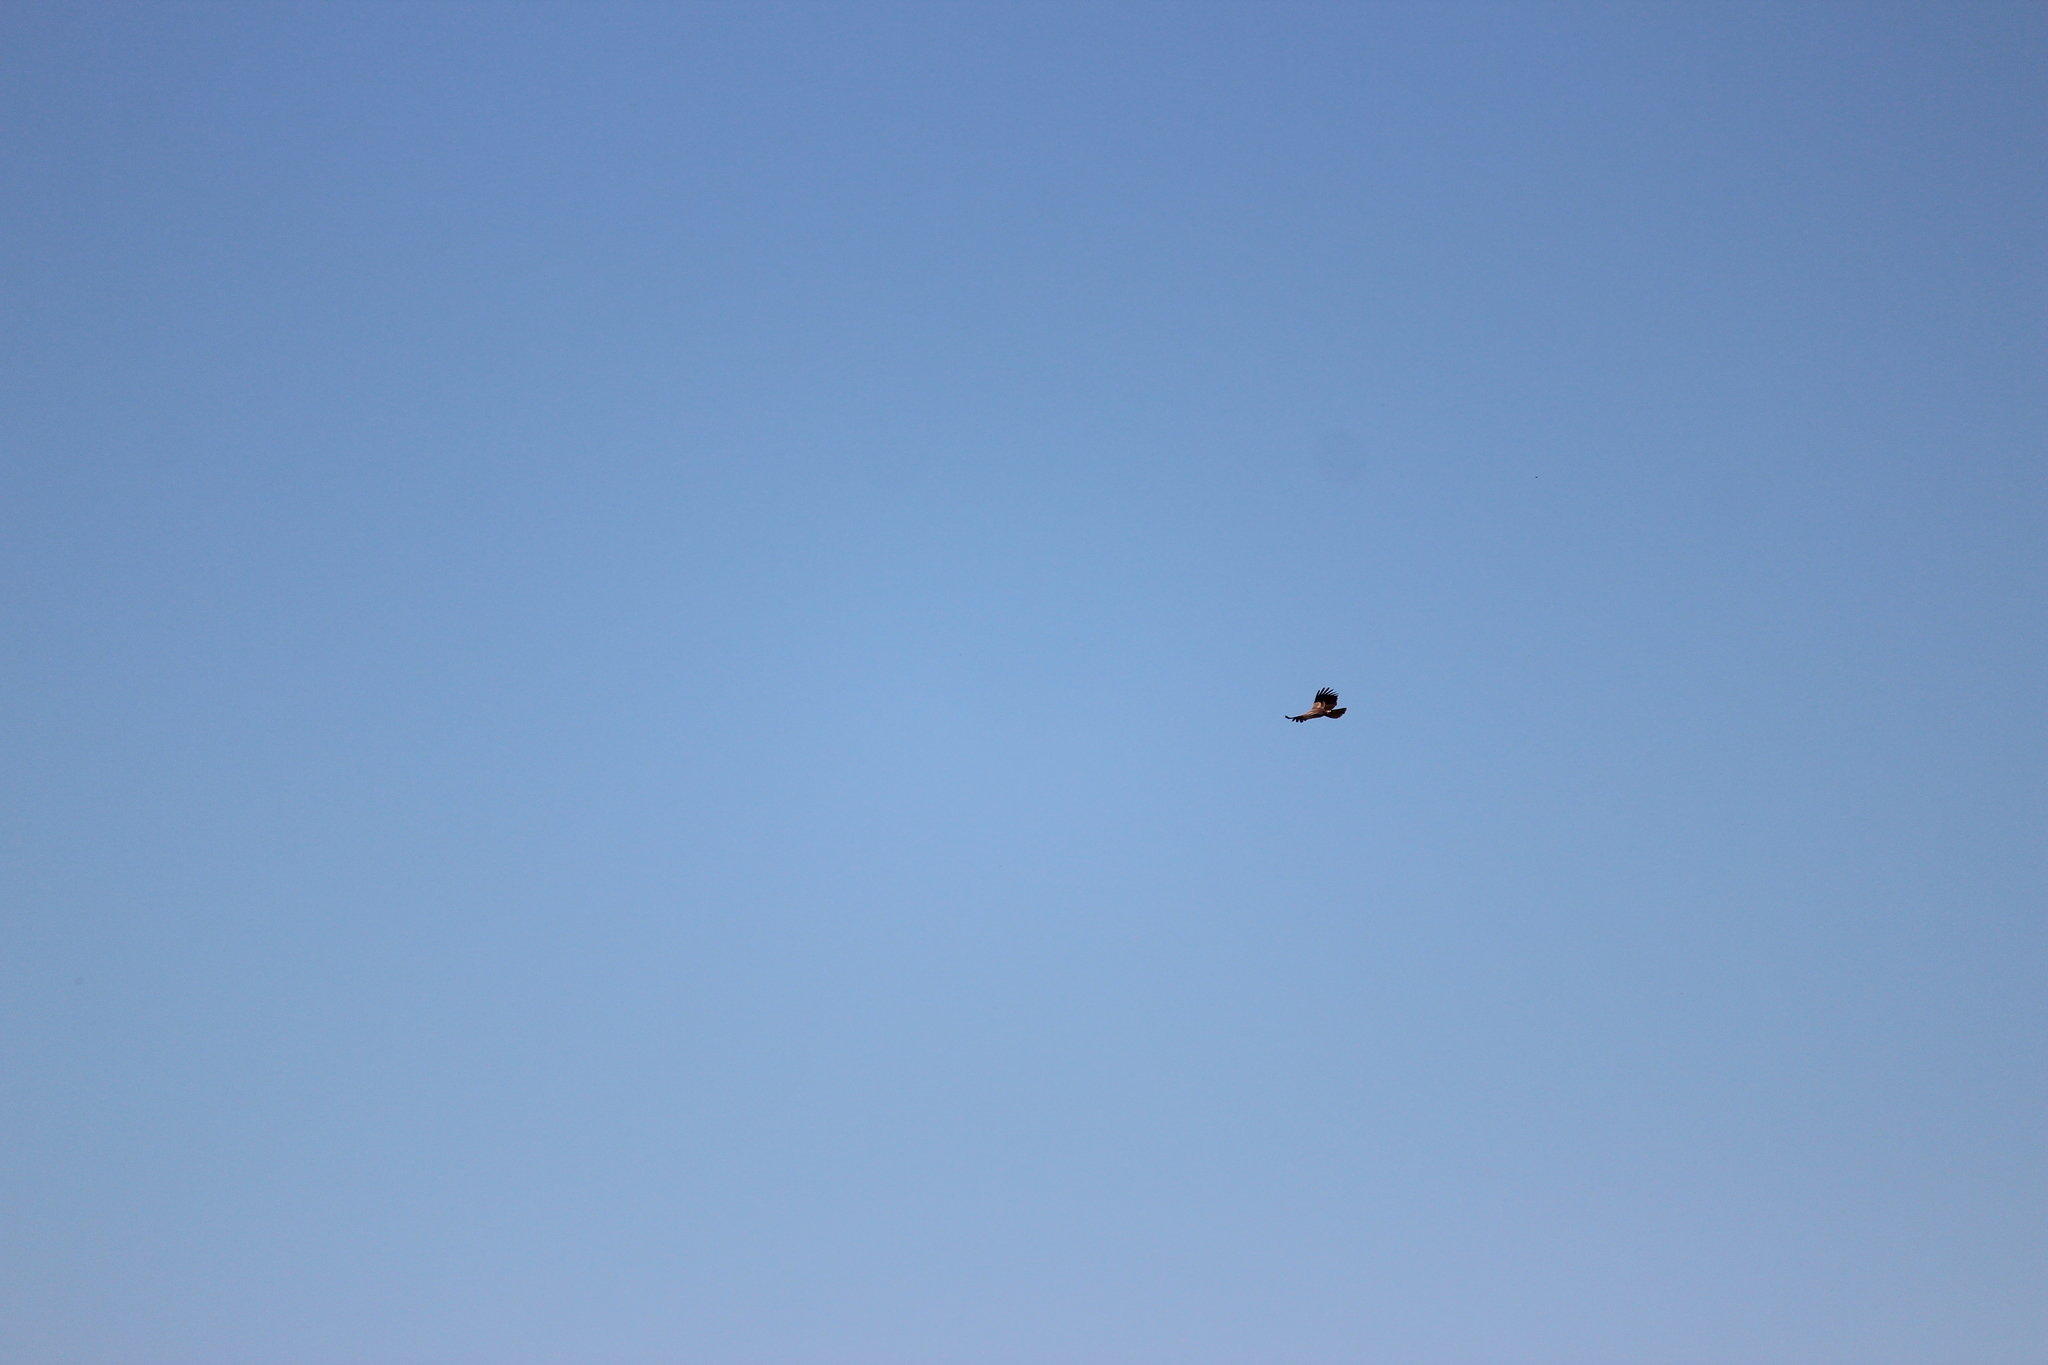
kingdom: Animalia
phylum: Chordata
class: Aves
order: Accipitriformes
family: Accipitridae
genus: Aquila
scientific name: Aquila rapax
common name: Tawny eagle
